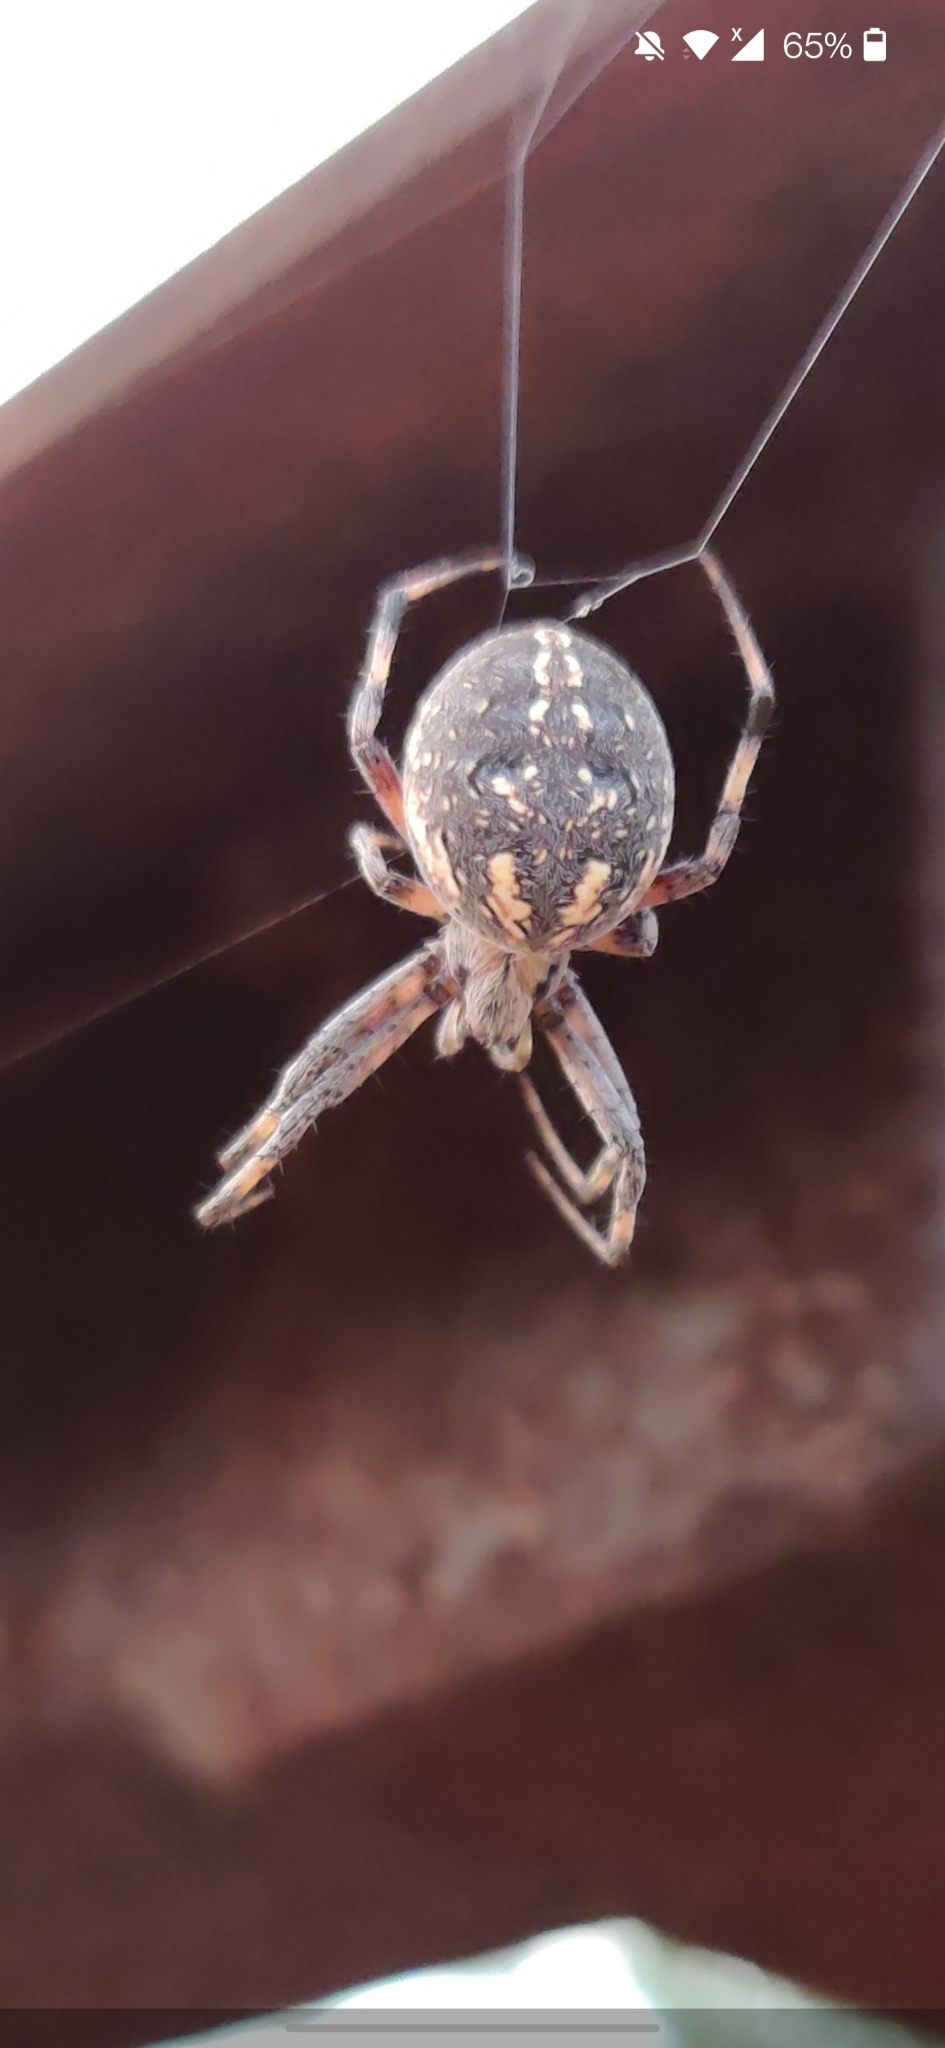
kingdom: Animalia
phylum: Arthropoda
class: Arachnida
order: Araneae
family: Araneidae
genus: Neoscona
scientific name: Neoscona oaxacensis
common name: Orb weavers
